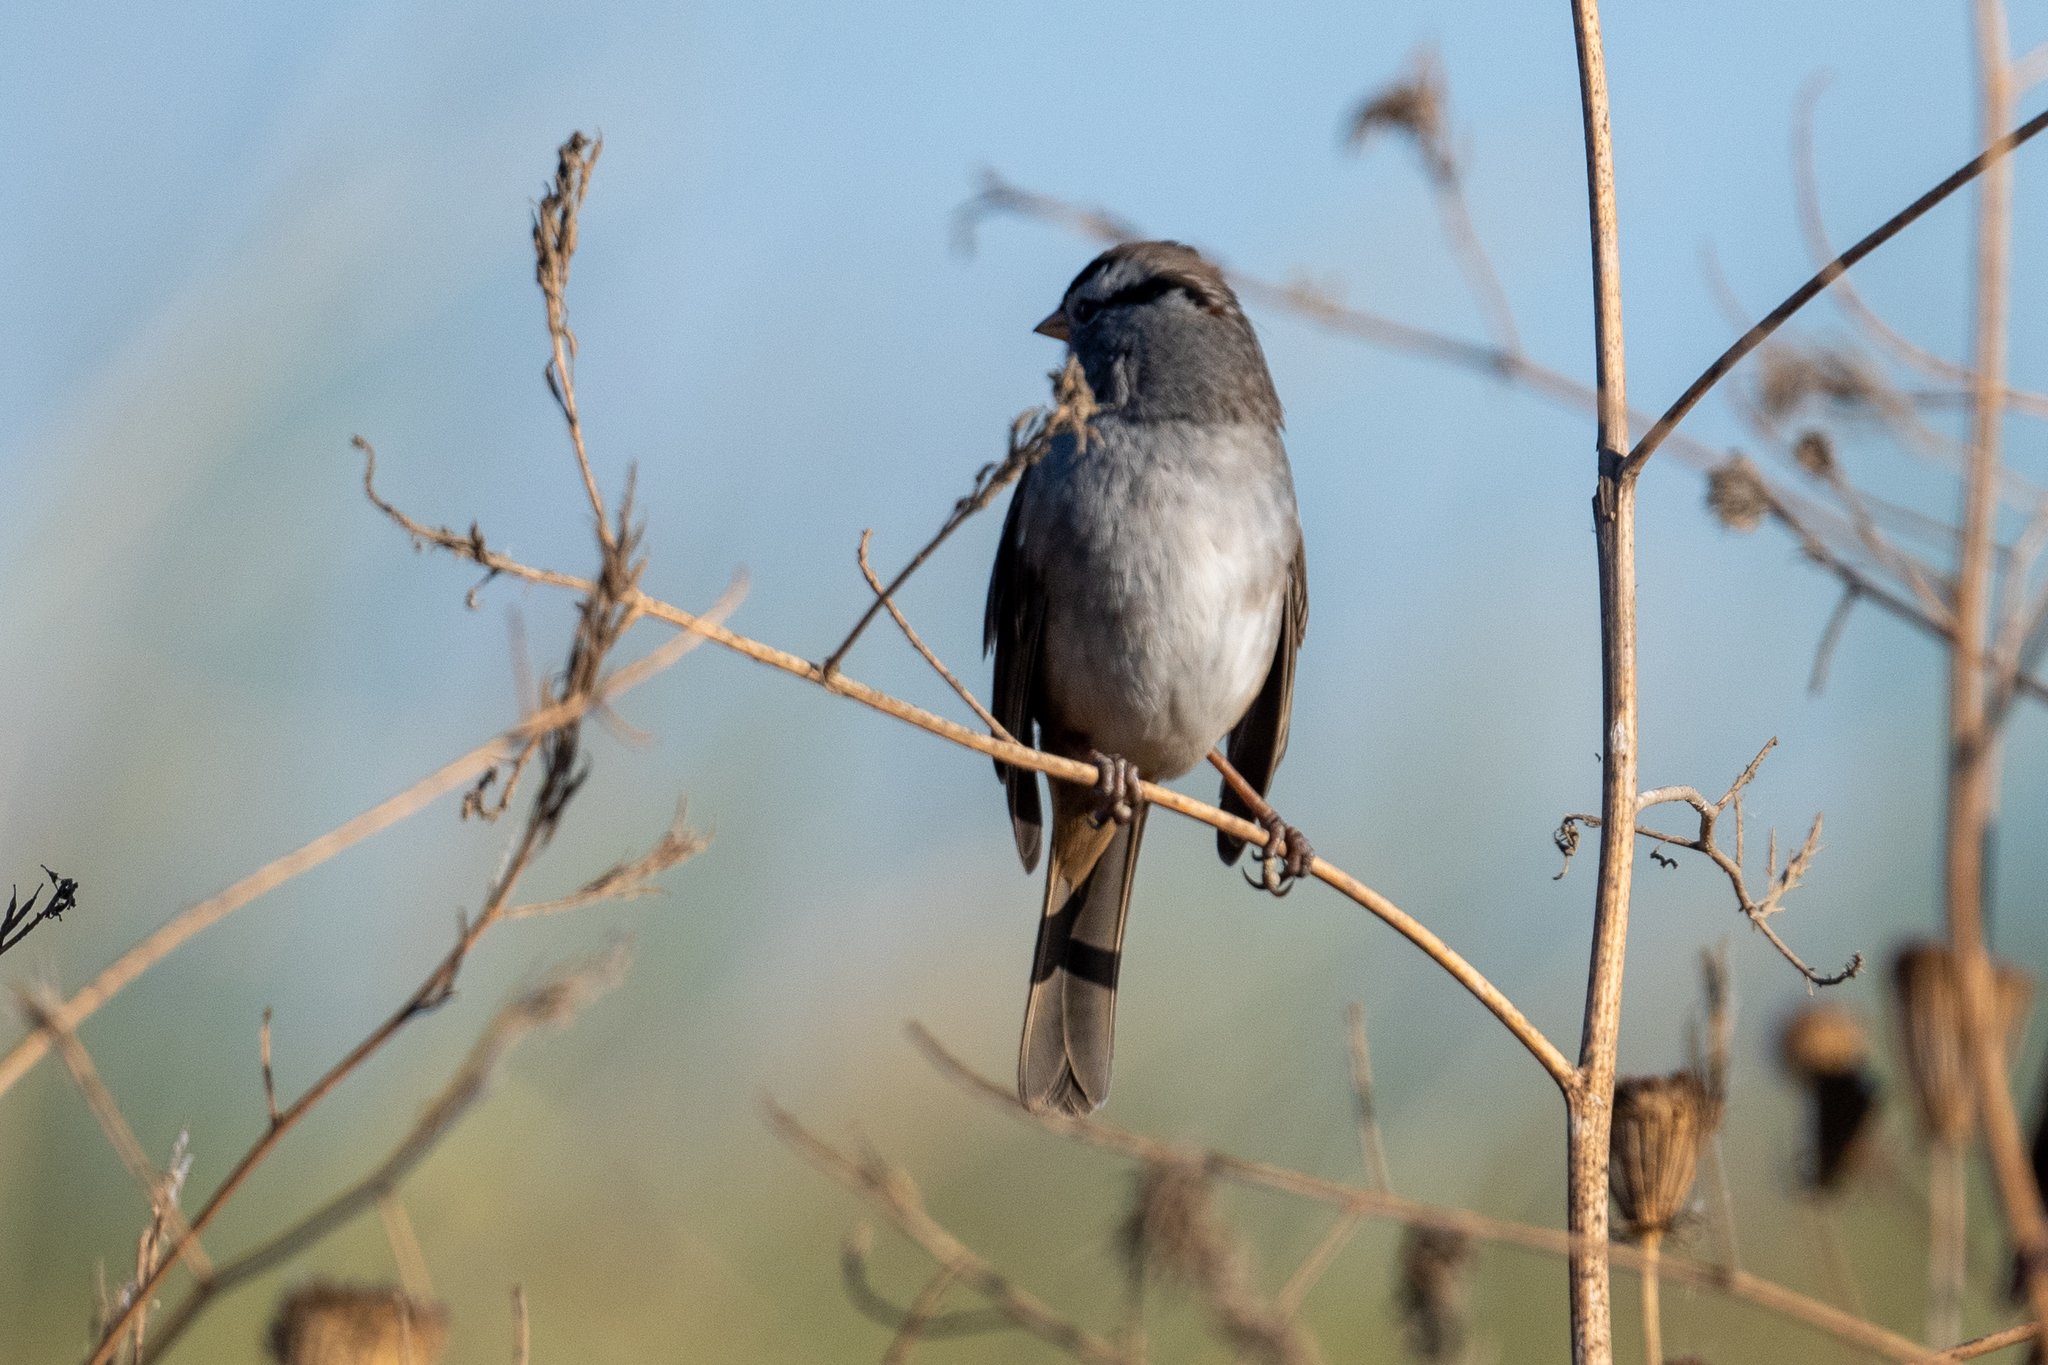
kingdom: Animalia
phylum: Chordata
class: Aves
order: Passeriformes
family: Passerellidae
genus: Zonotrichia
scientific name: Zonotrichia leucophrys
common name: White-crowned sparrow
